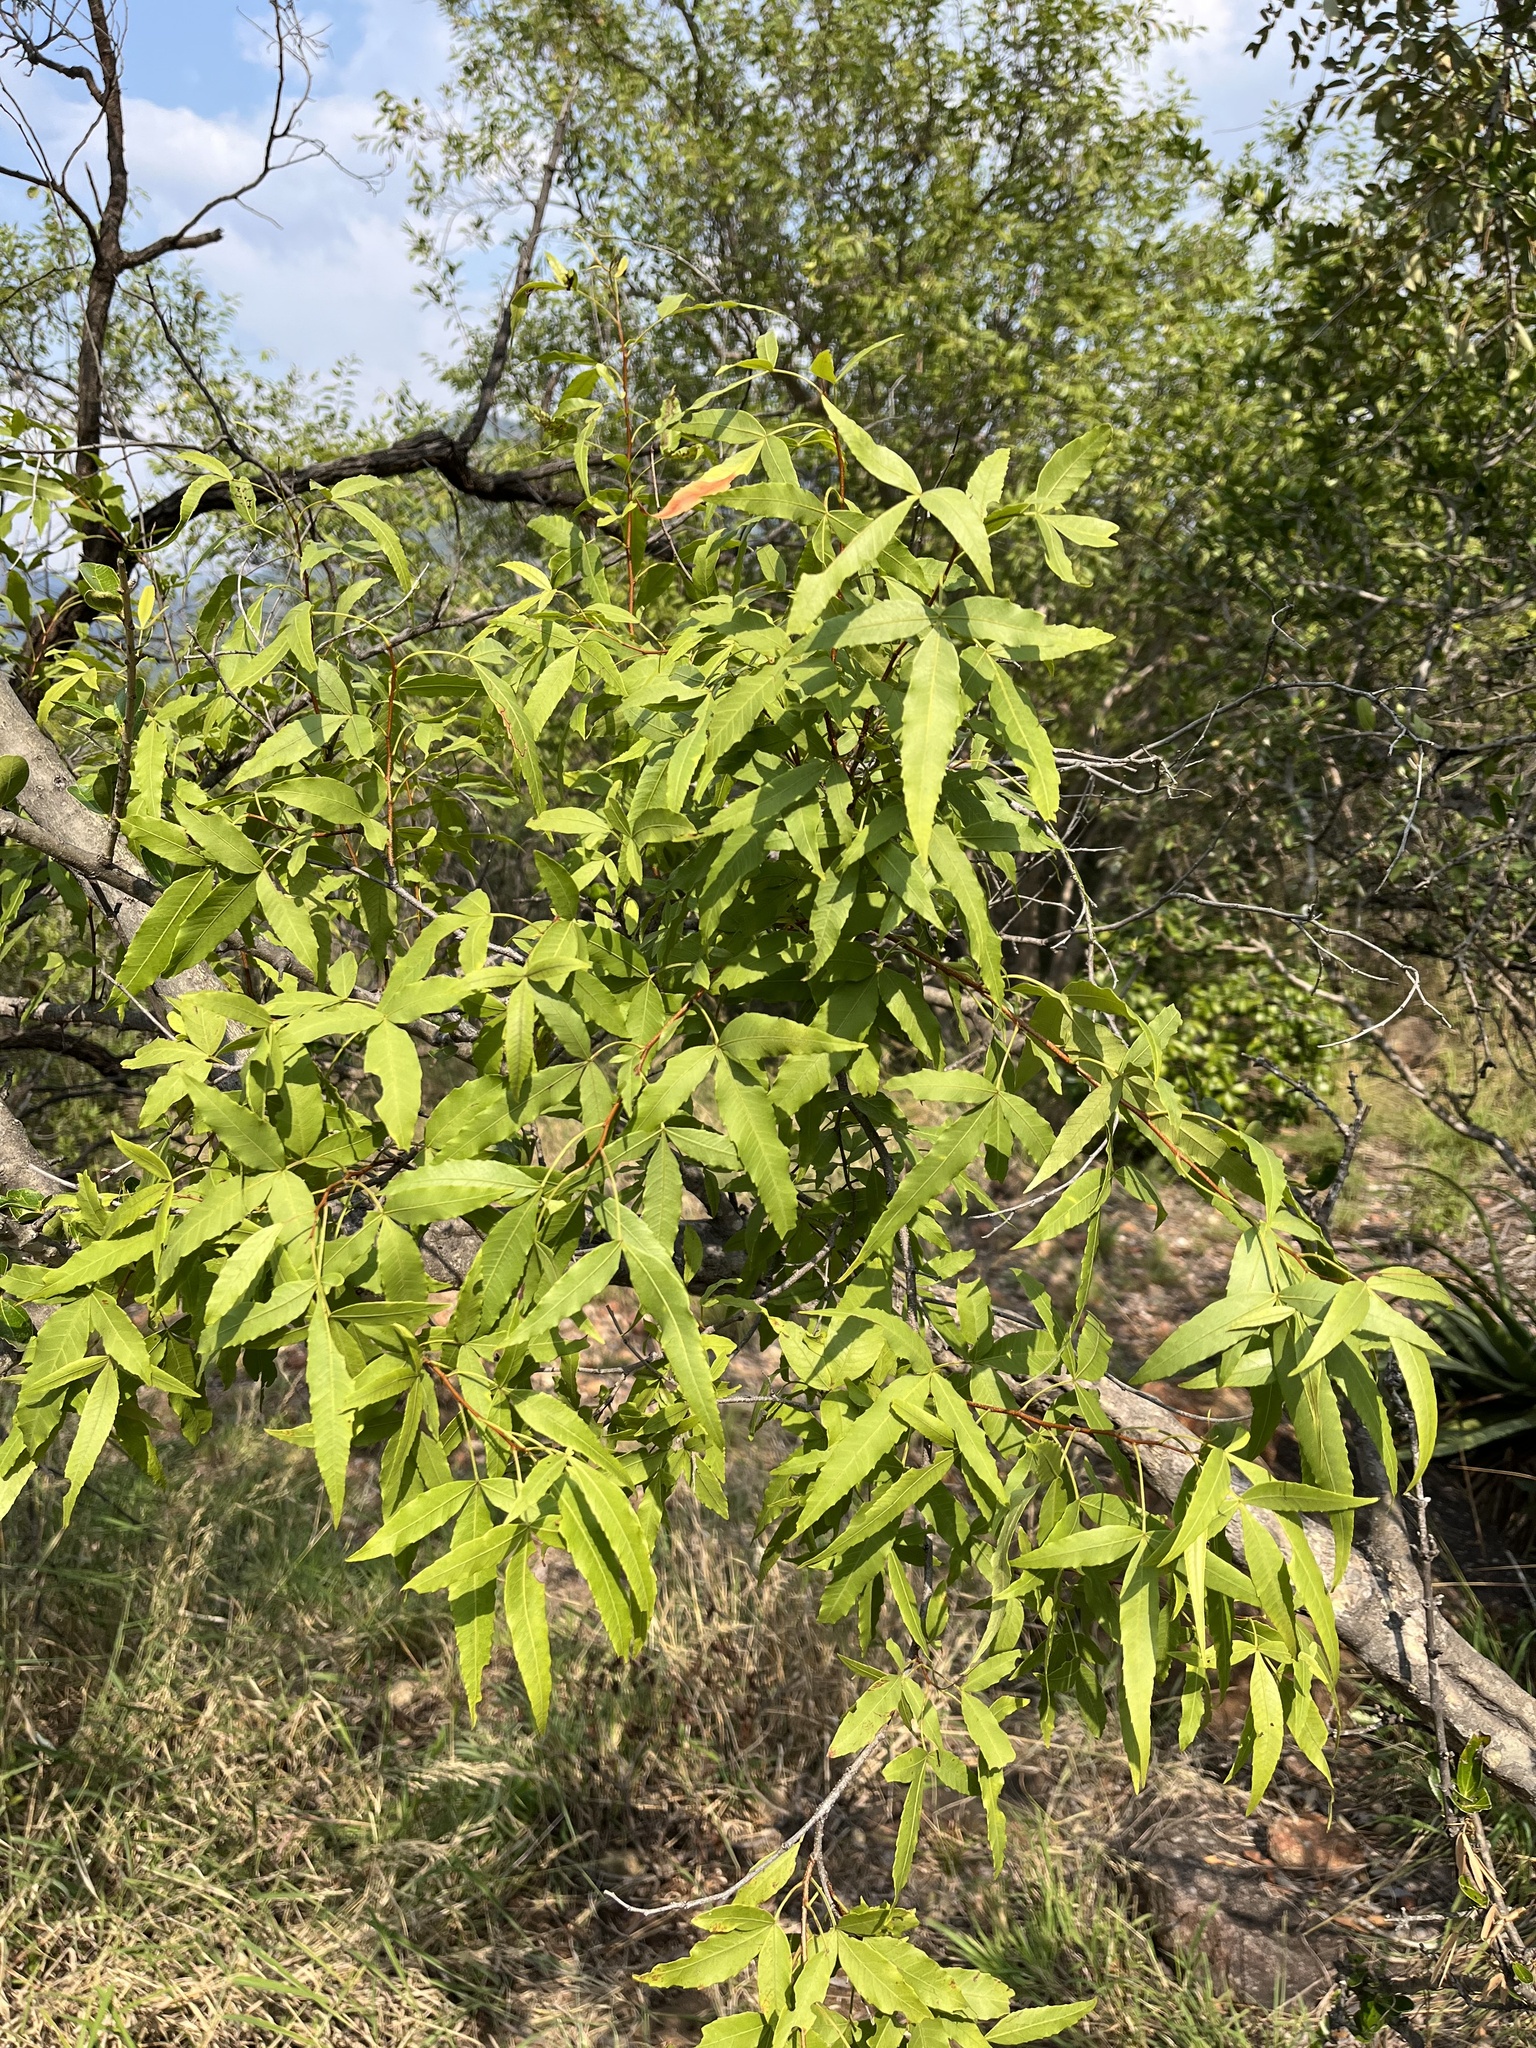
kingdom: Plantae
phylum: Tracheophyta
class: Magnoliopsida
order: Sapindales
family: Anacardiaceae
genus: Searsia
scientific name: Searsia leptodictya
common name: Mountain karee
